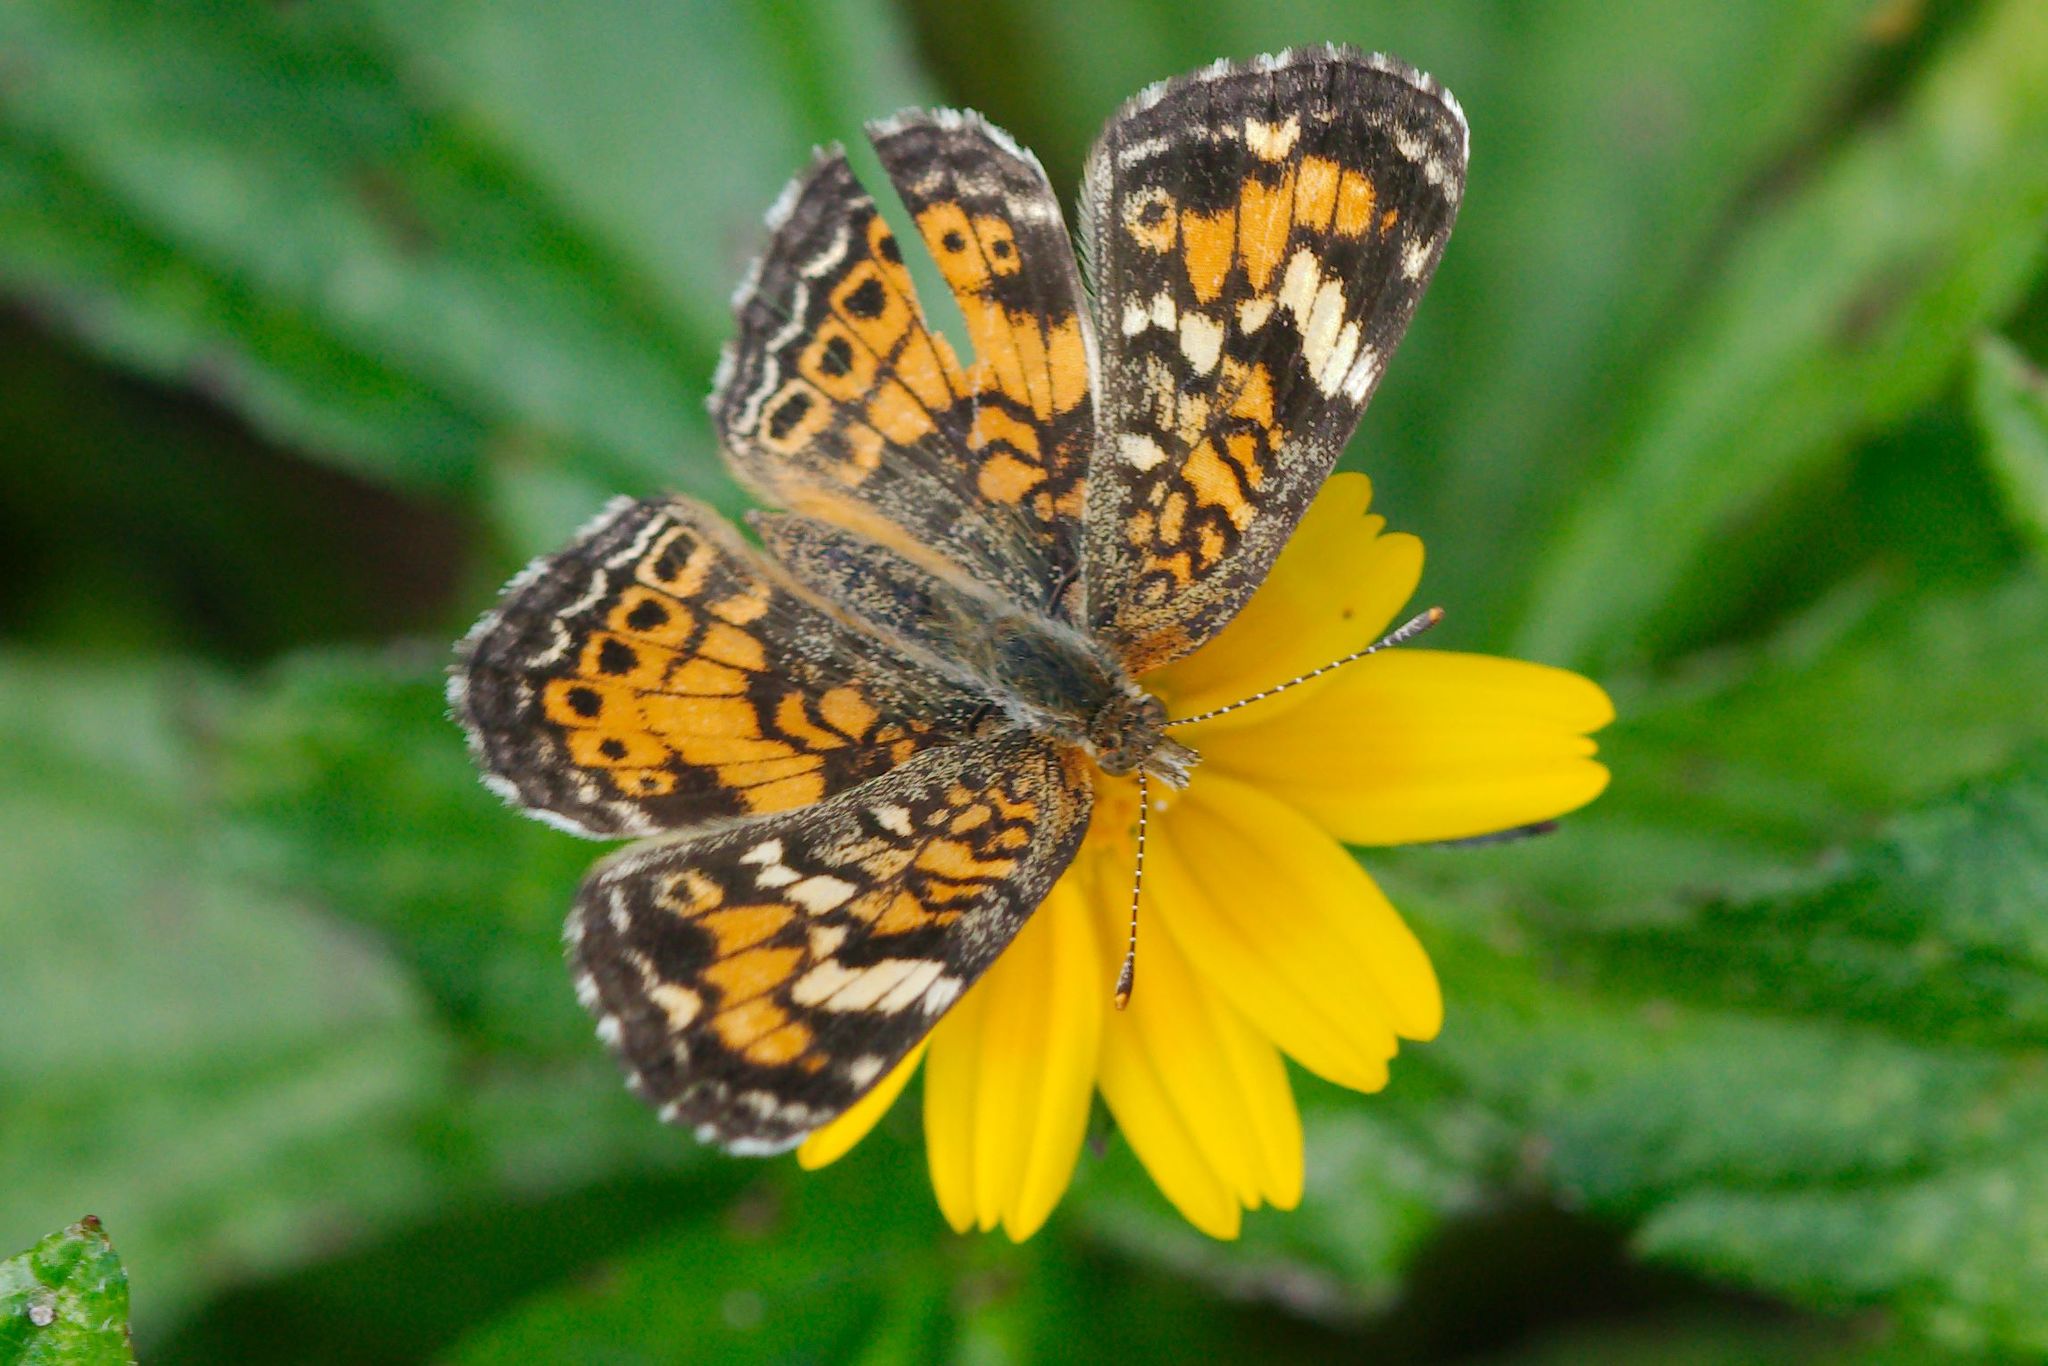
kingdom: Animalia
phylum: Arthropoda
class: Insecta
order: Lepidoptera
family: Nymphalidae
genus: Phyciodes
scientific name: Phyciodes phaon
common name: Phaon crescent
